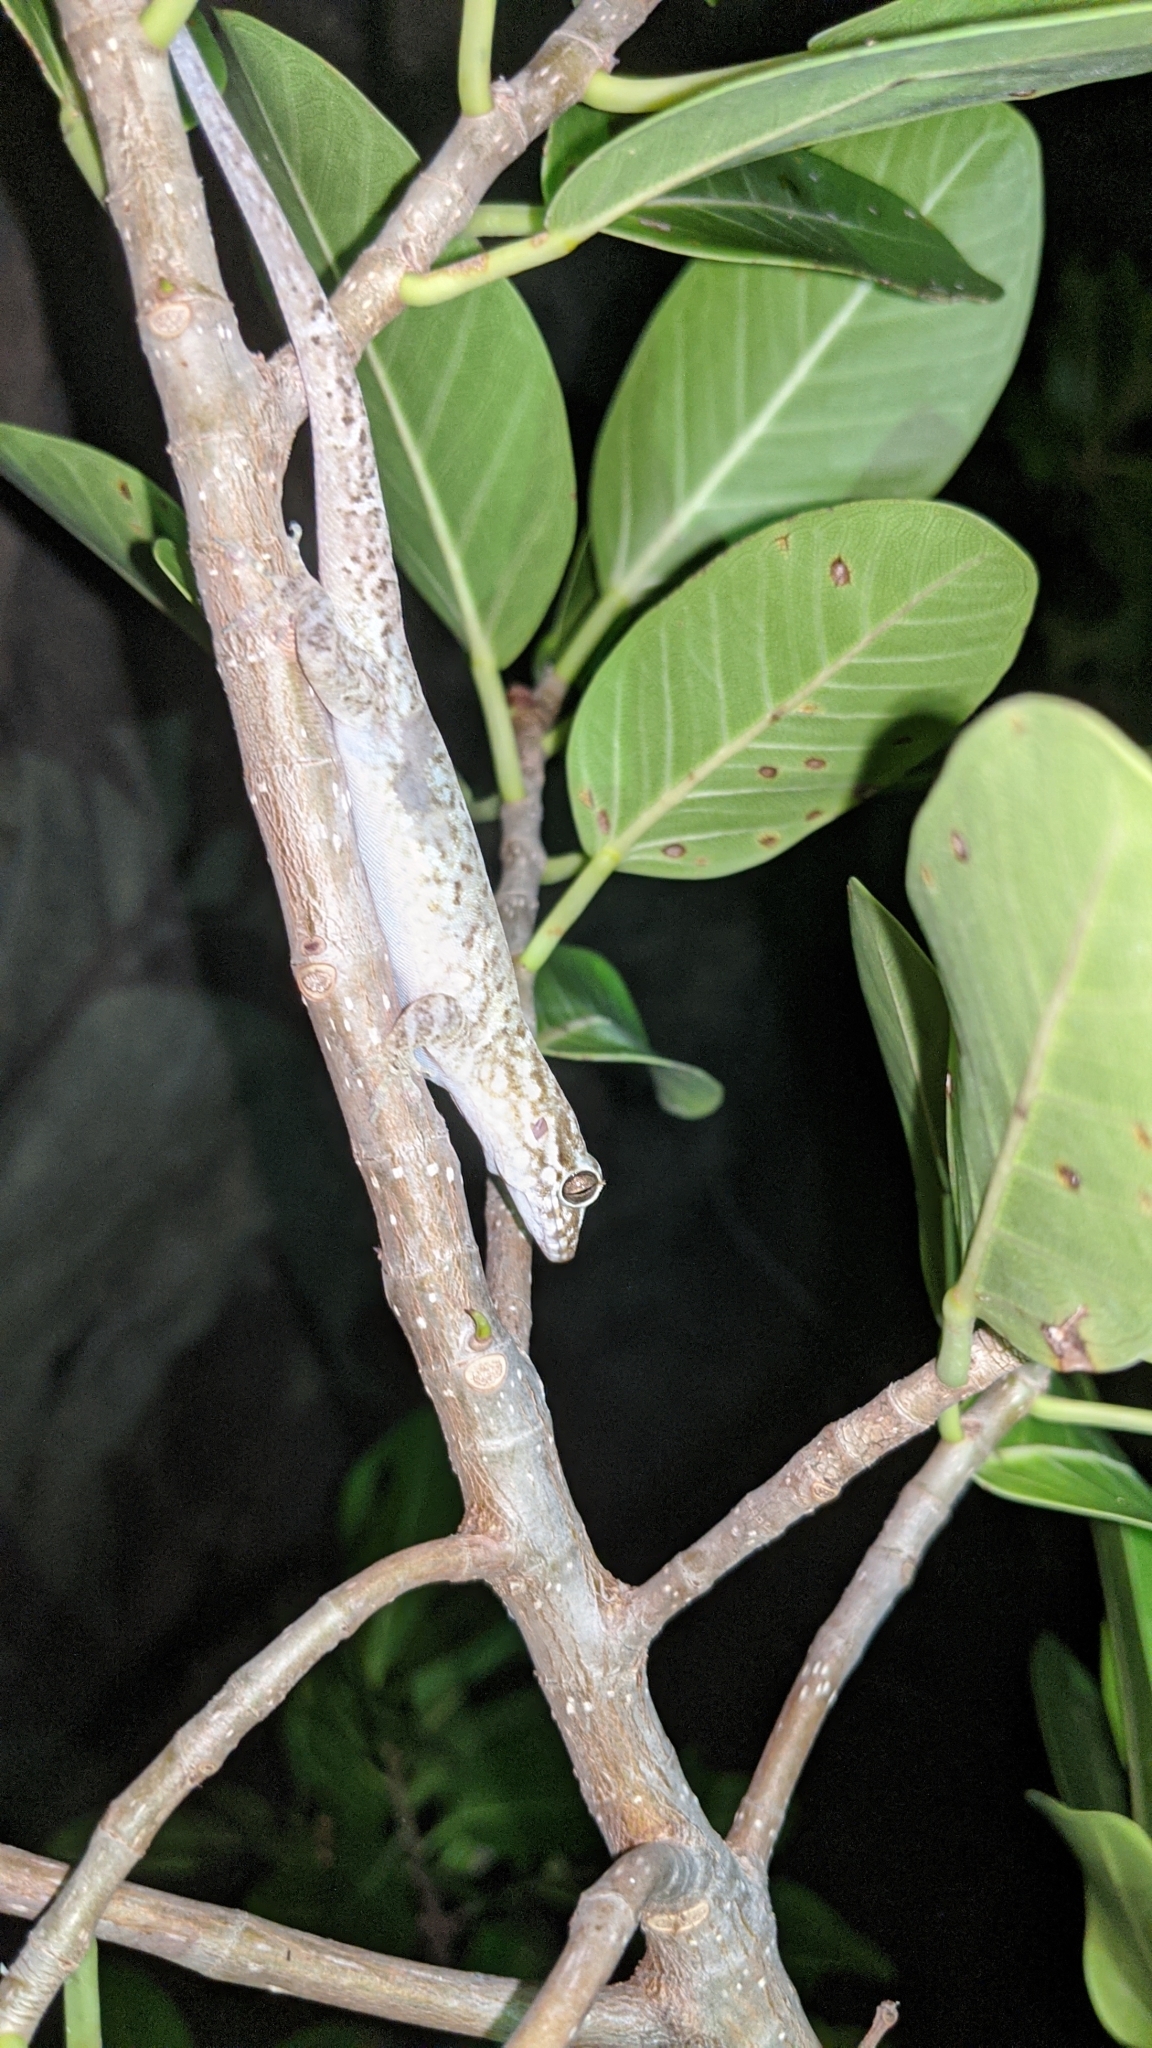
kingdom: Animalia
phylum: Chordata
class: Squamata
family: Sphaerodactylidae
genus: Aristelliger
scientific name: Aristelliger praesignis
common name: Croaking lizard
